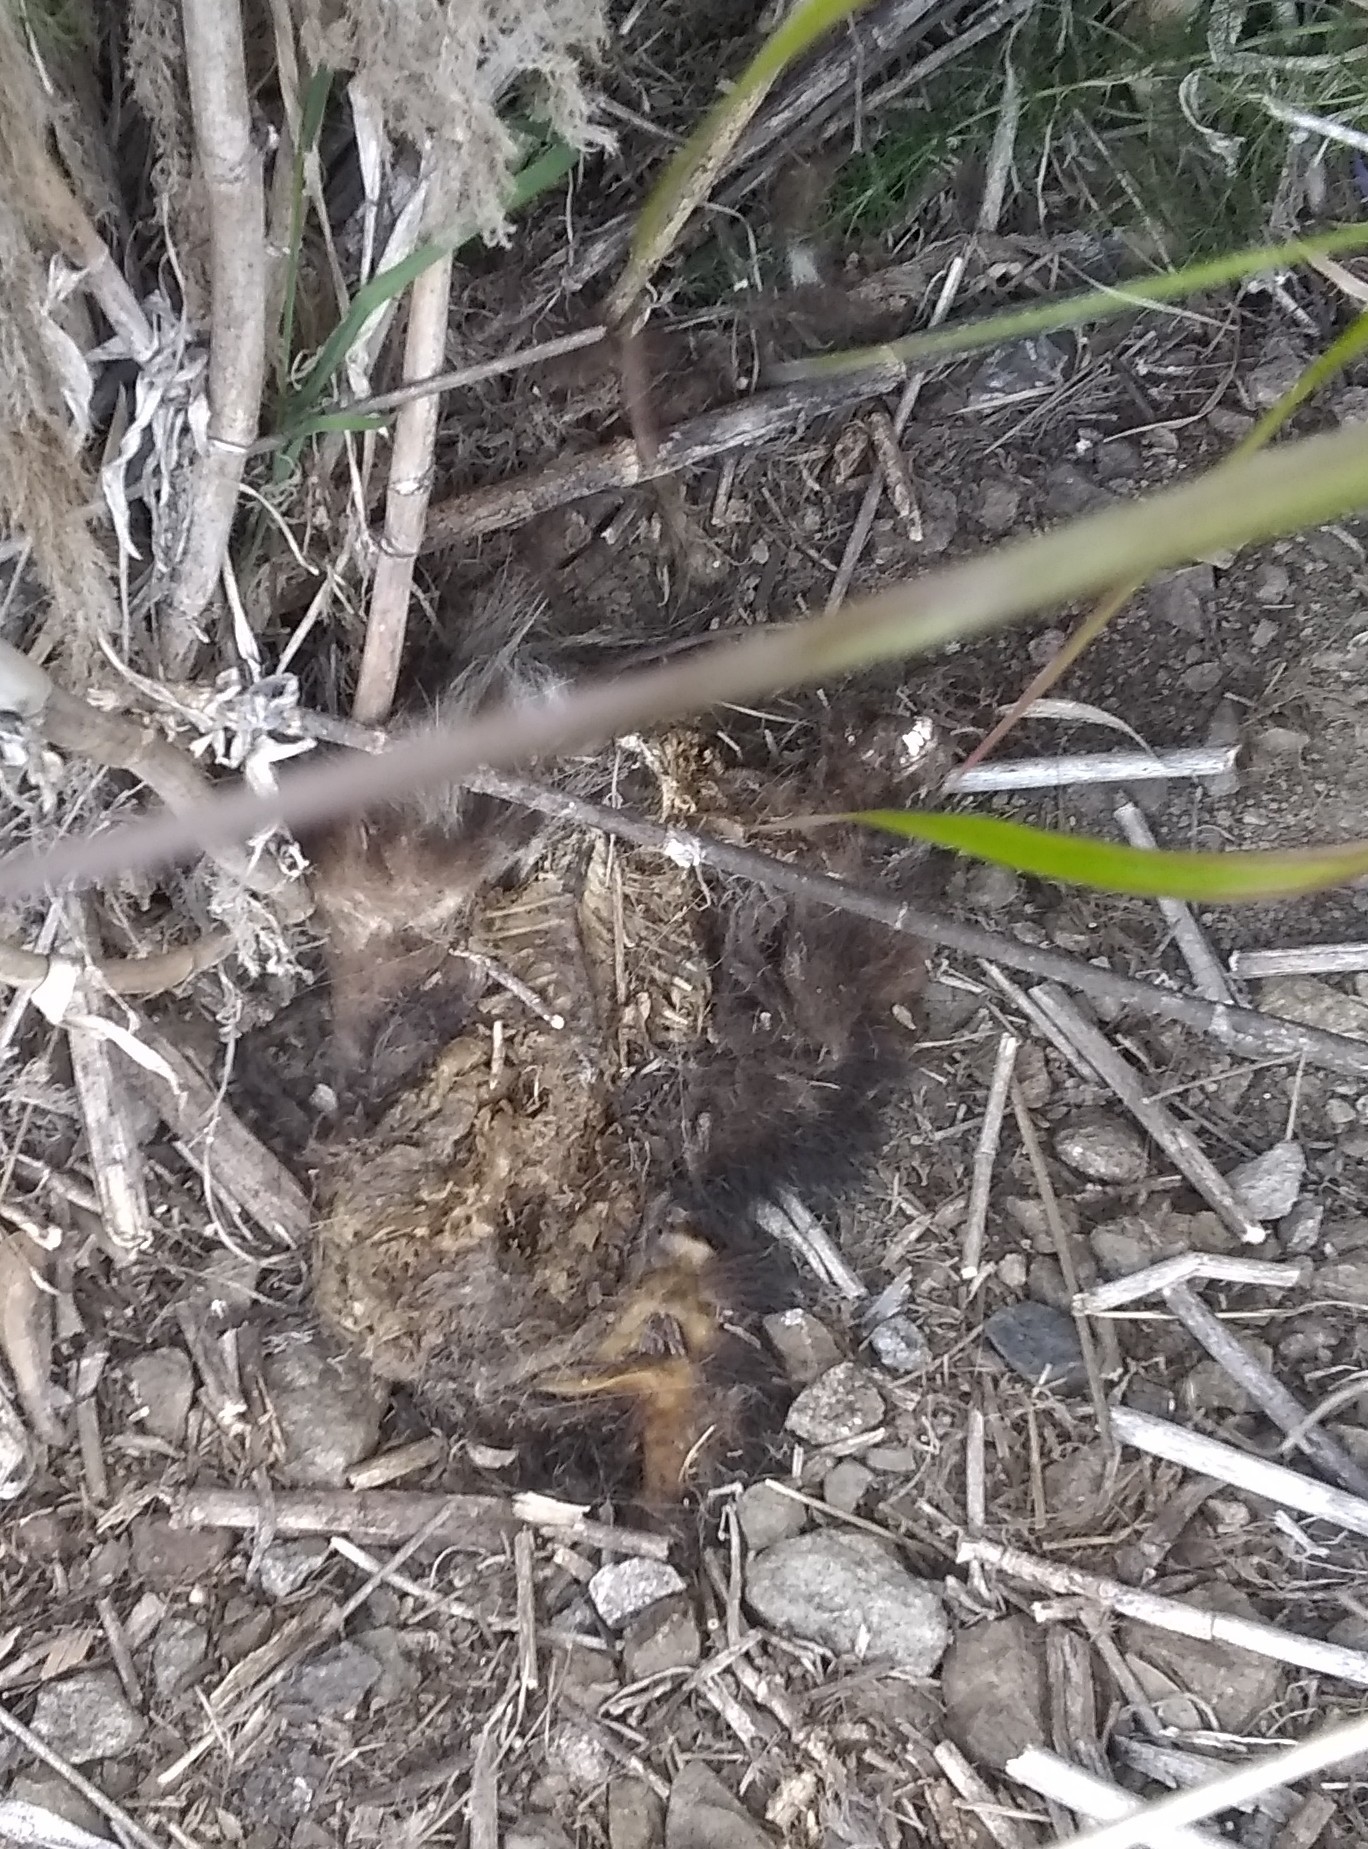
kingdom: Animalia
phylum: Chordata
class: Mammalia
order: Carnivora
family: Mephitidae
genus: Mephitis
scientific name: Mephitis mephitis
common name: Striped skunk
